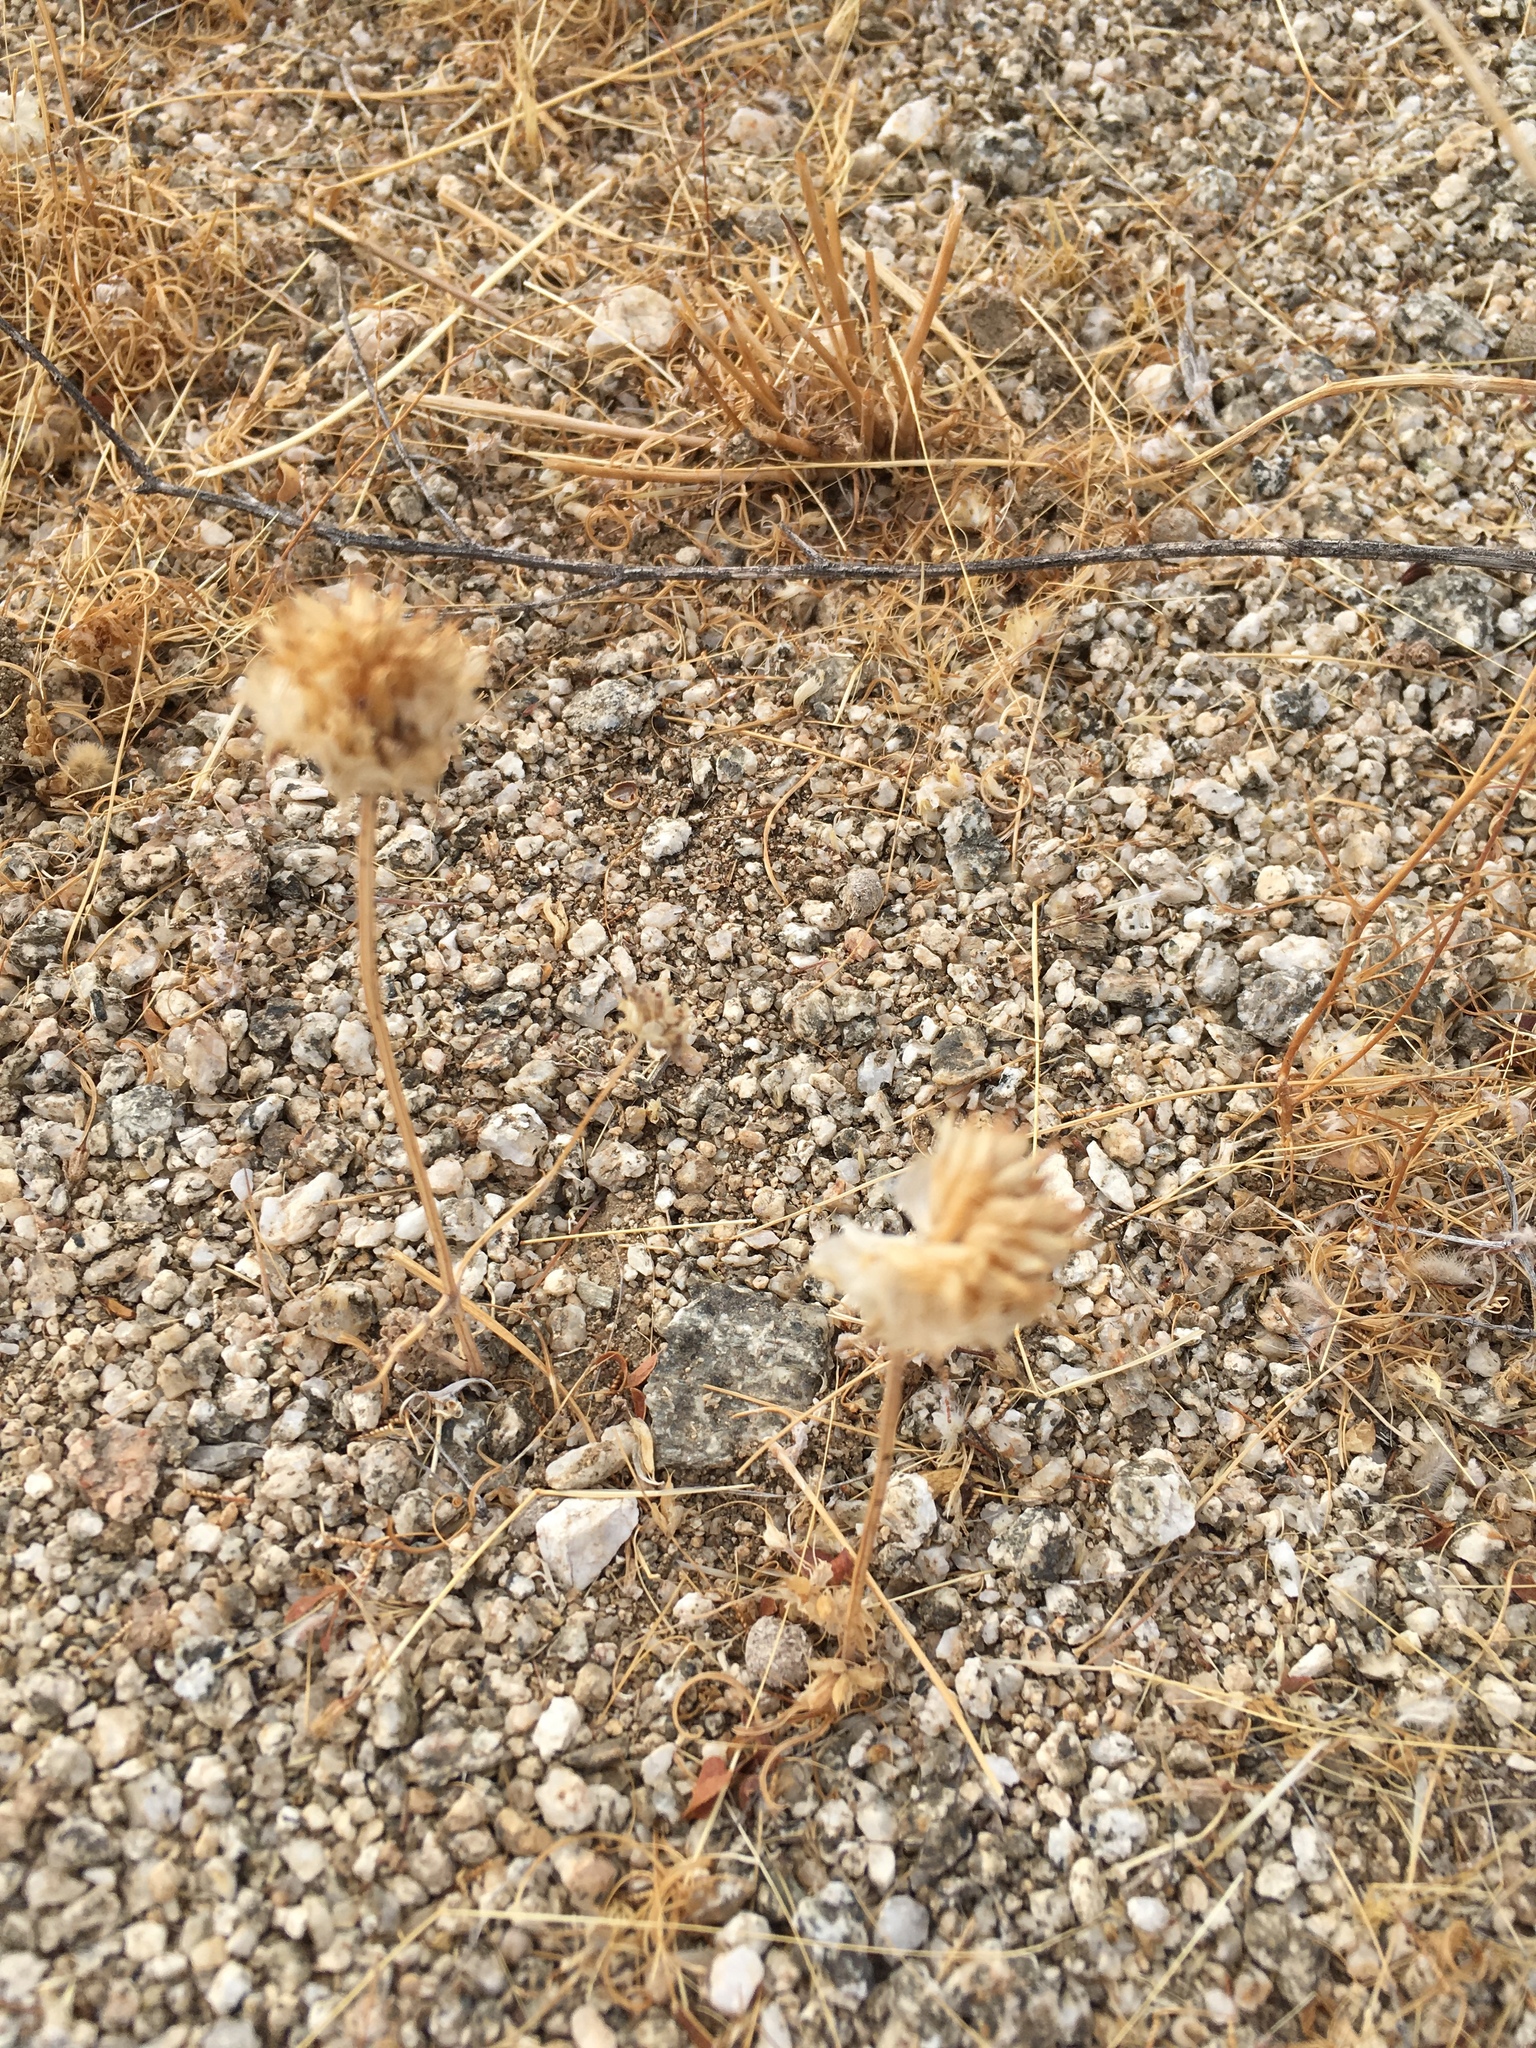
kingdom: Plantae
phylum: Tracheophyta
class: Magnoliopsida
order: Lamiales
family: Lamiaceae
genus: Salvia
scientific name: Salvia columbariae
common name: Chia
